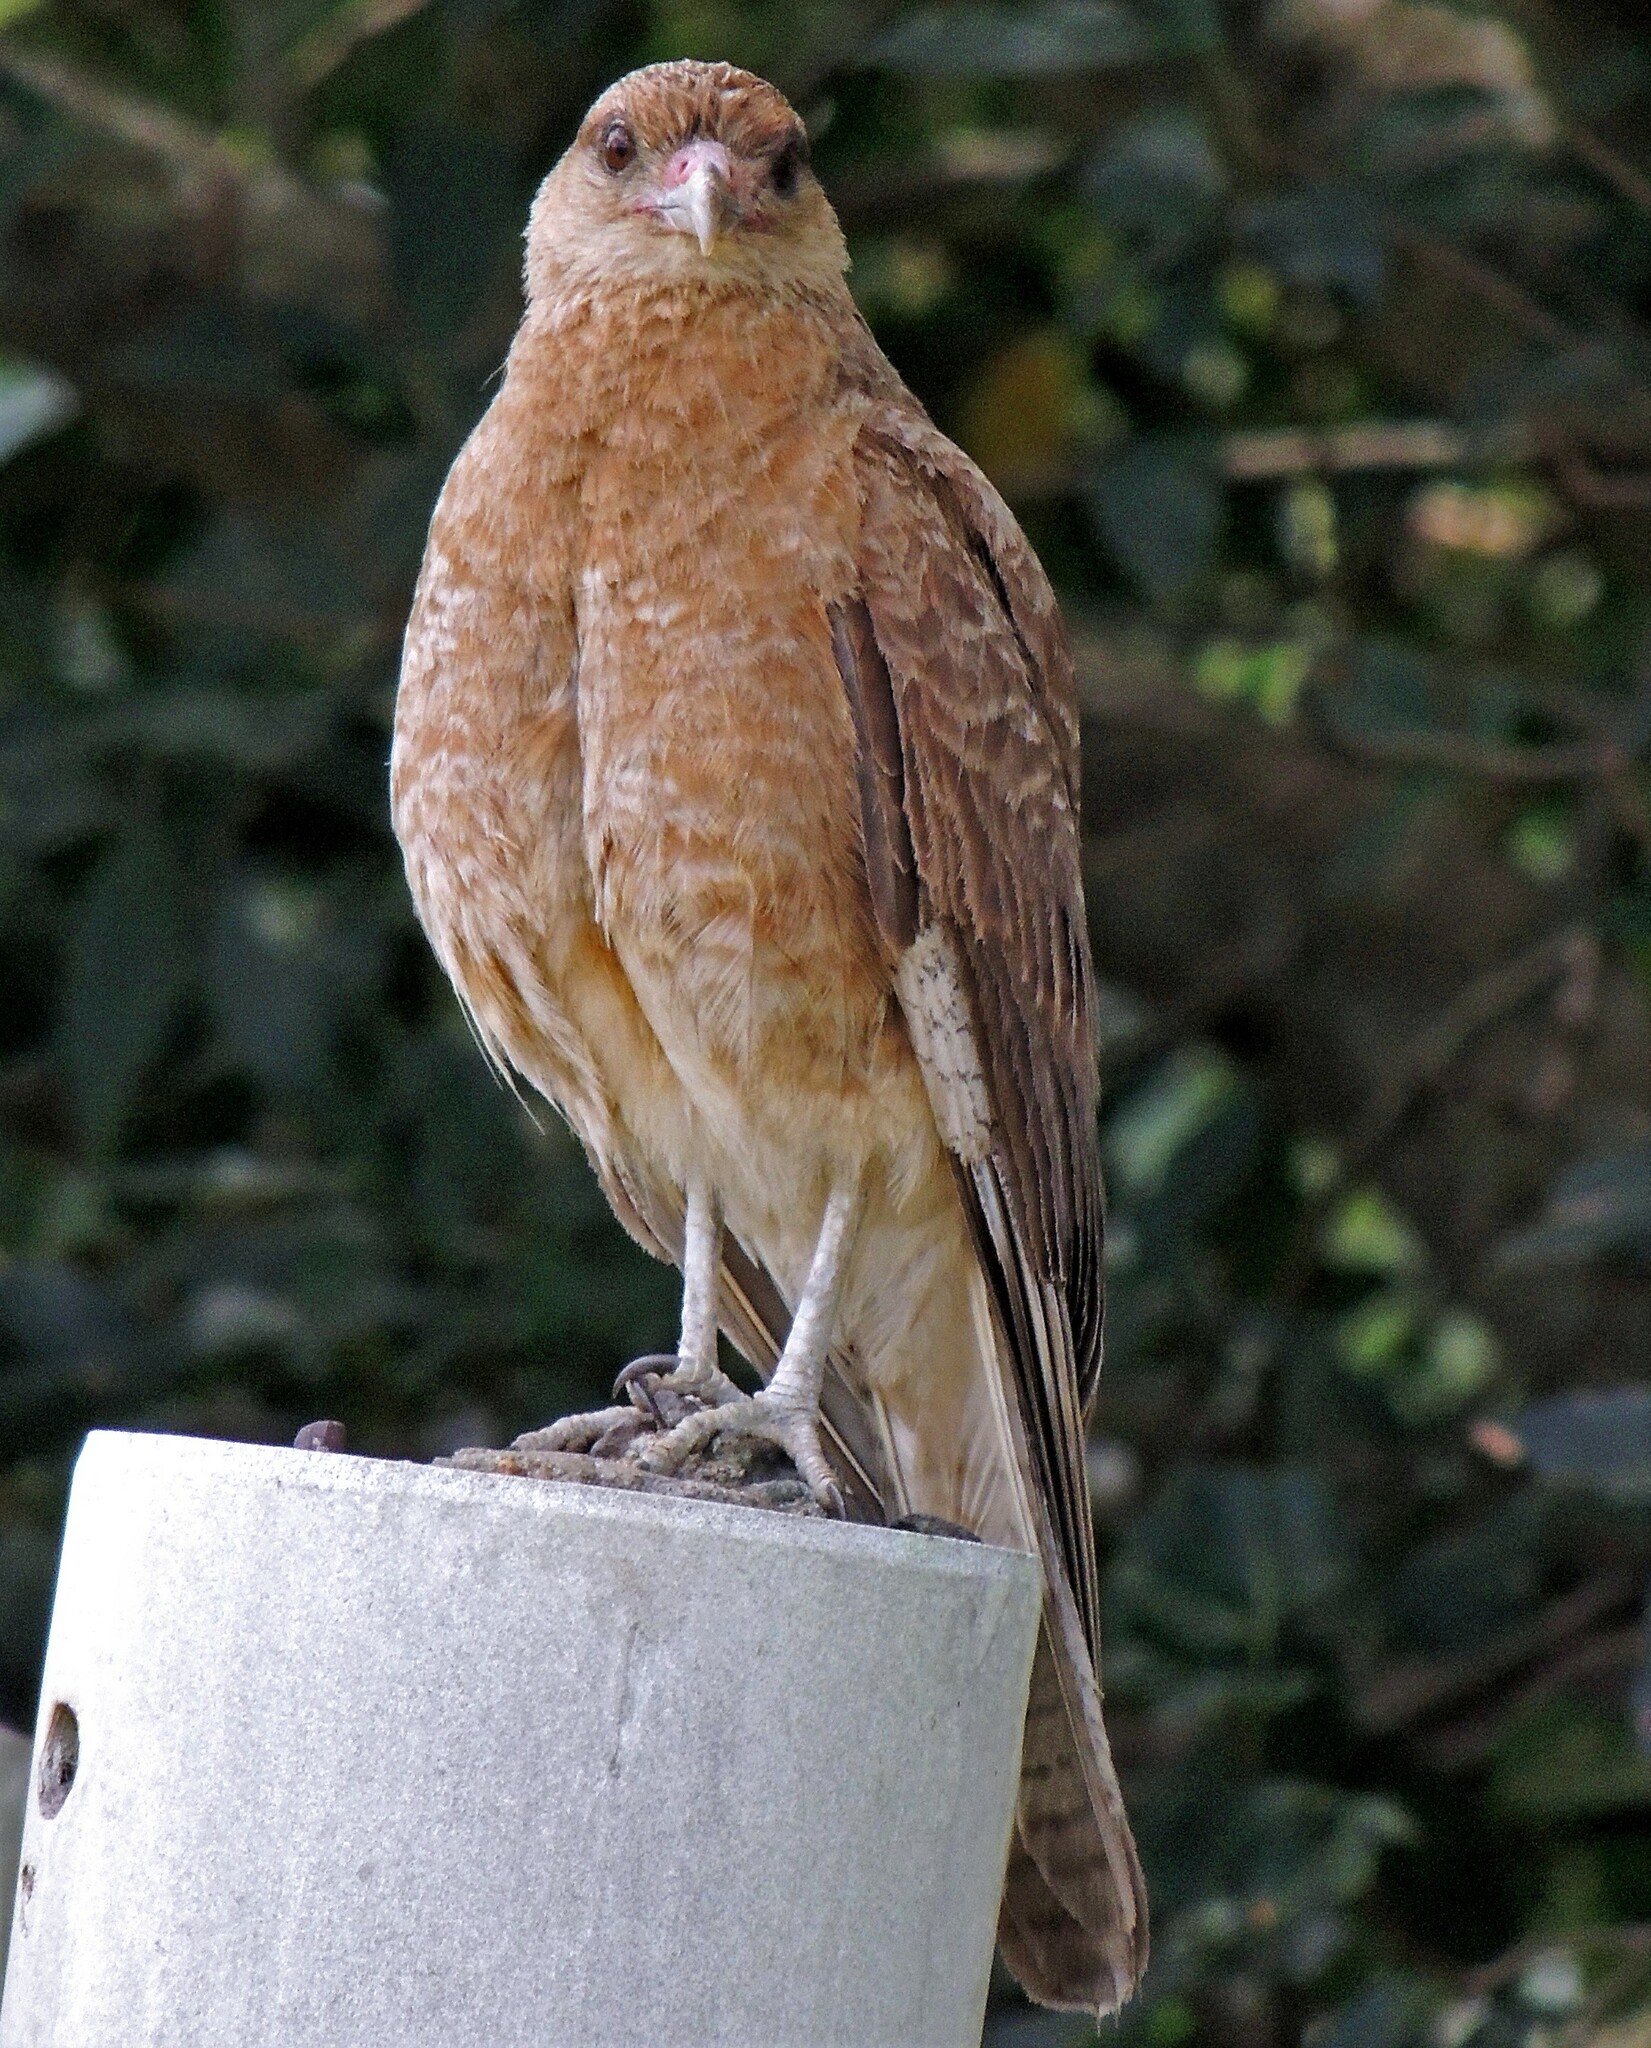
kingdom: Animalia
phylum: Chordata
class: Aves
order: Falconiformes
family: Falconidae
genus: Daptrius
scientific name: Daptrius
